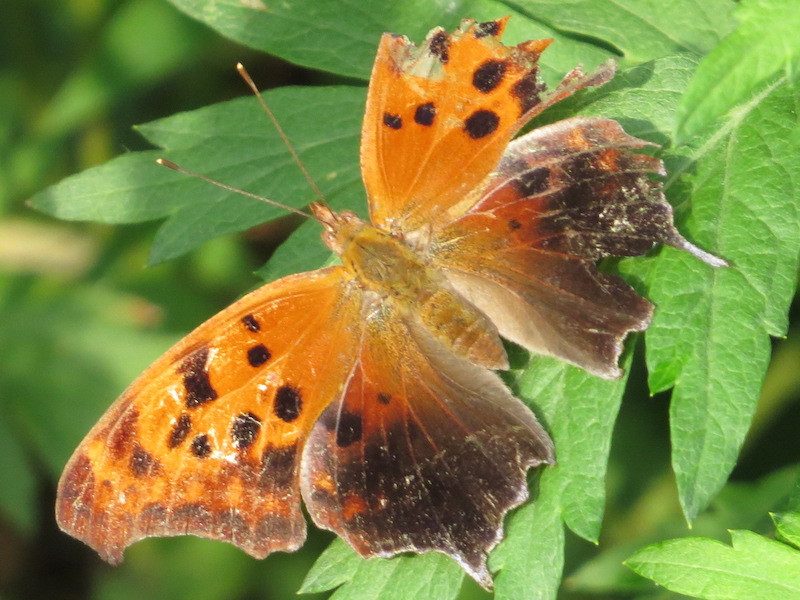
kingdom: Animalia
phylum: Arthropoda
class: Insecta
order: Lepidoptera
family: Nymphalidae
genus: Polygonia
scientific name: Polygonia interrogationis
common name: Question mark
